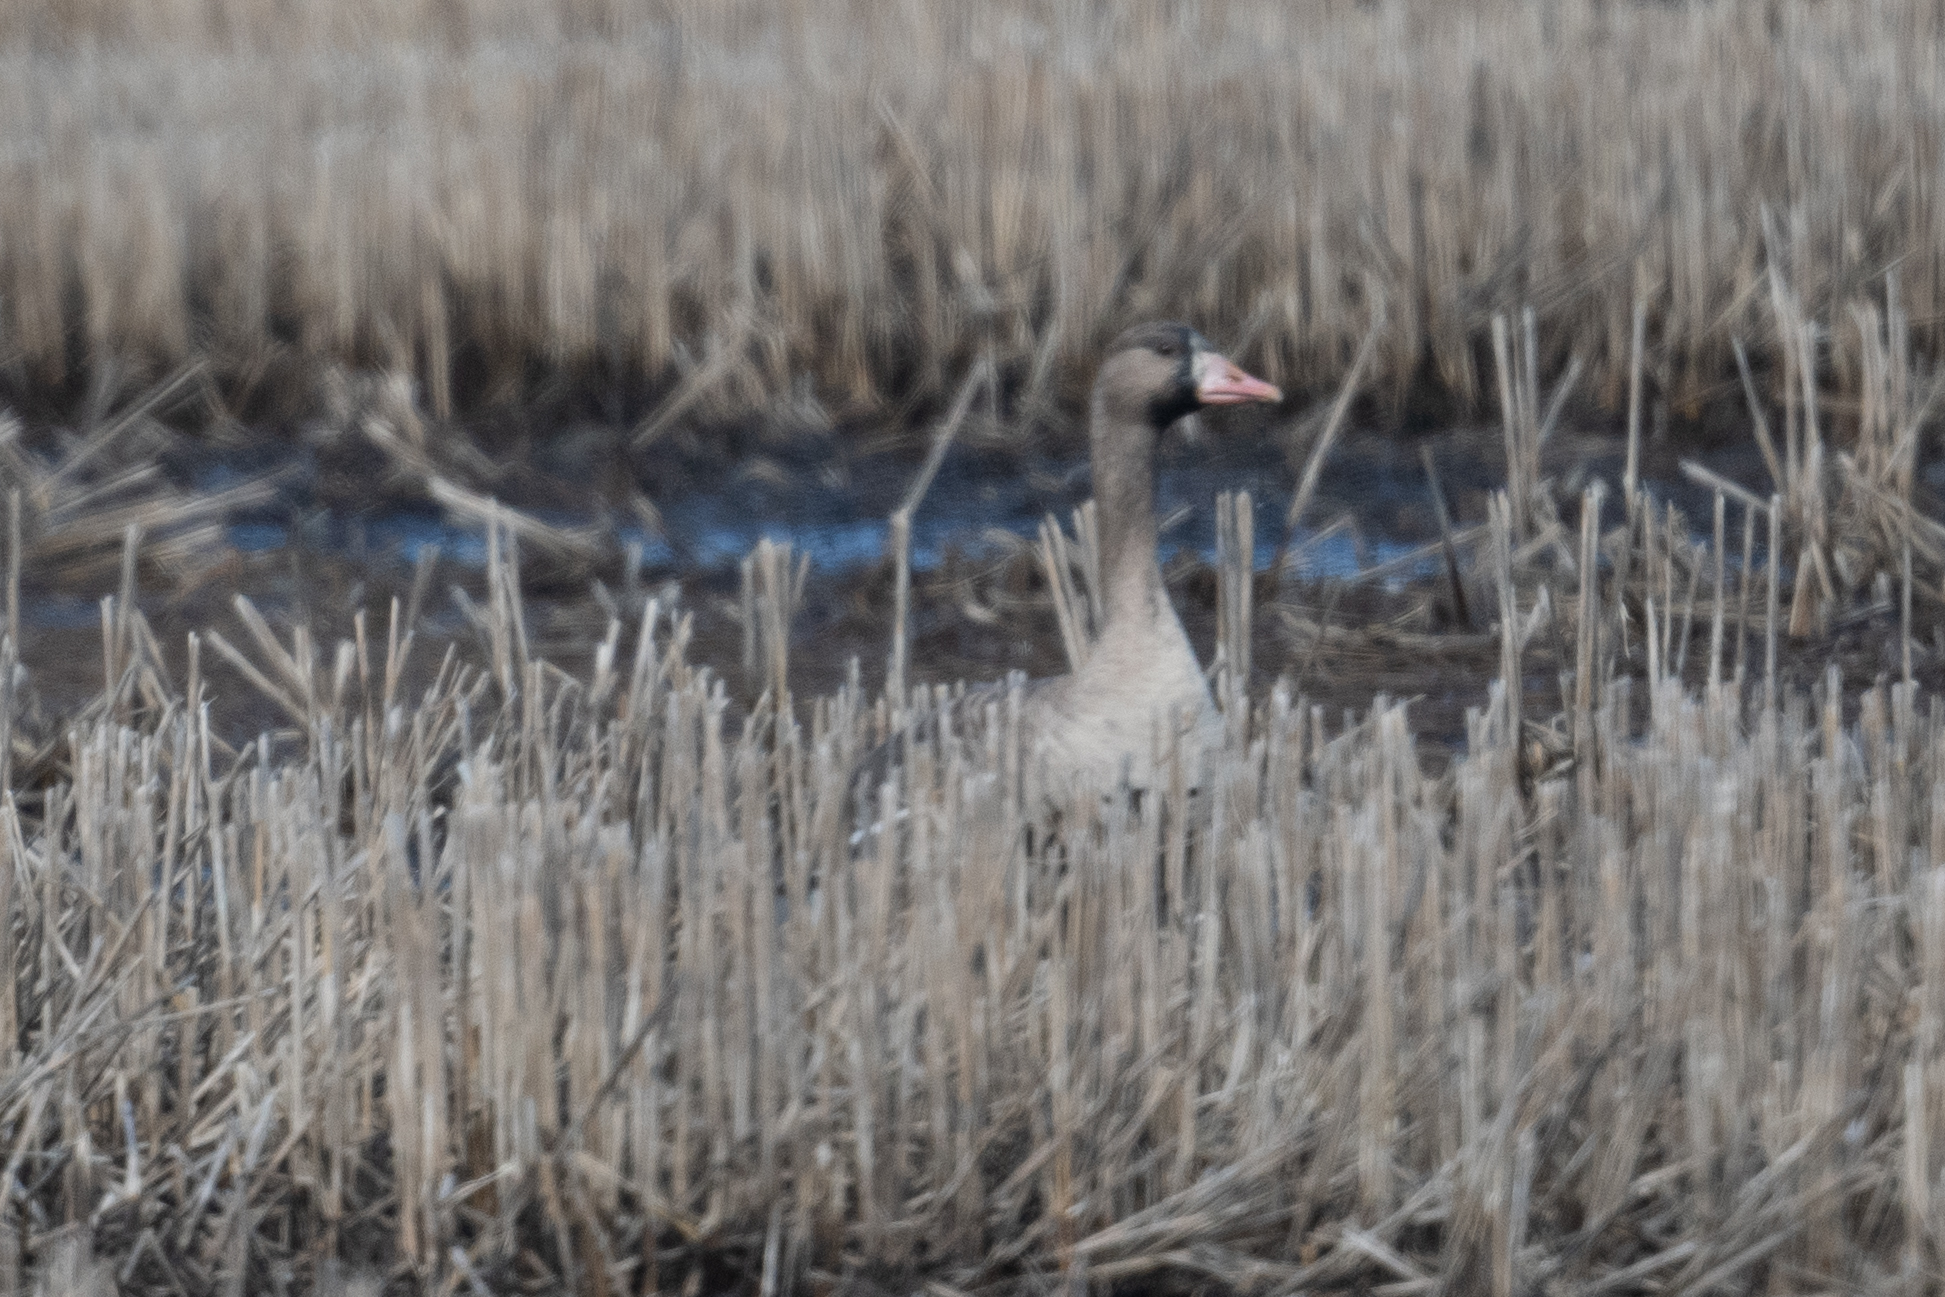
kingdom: Animalia
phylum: Chordata
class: Aves
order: Anseriformes
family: Anatidae
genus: Anser
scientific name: Anser albifrons
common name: Greater white-fronted goose
